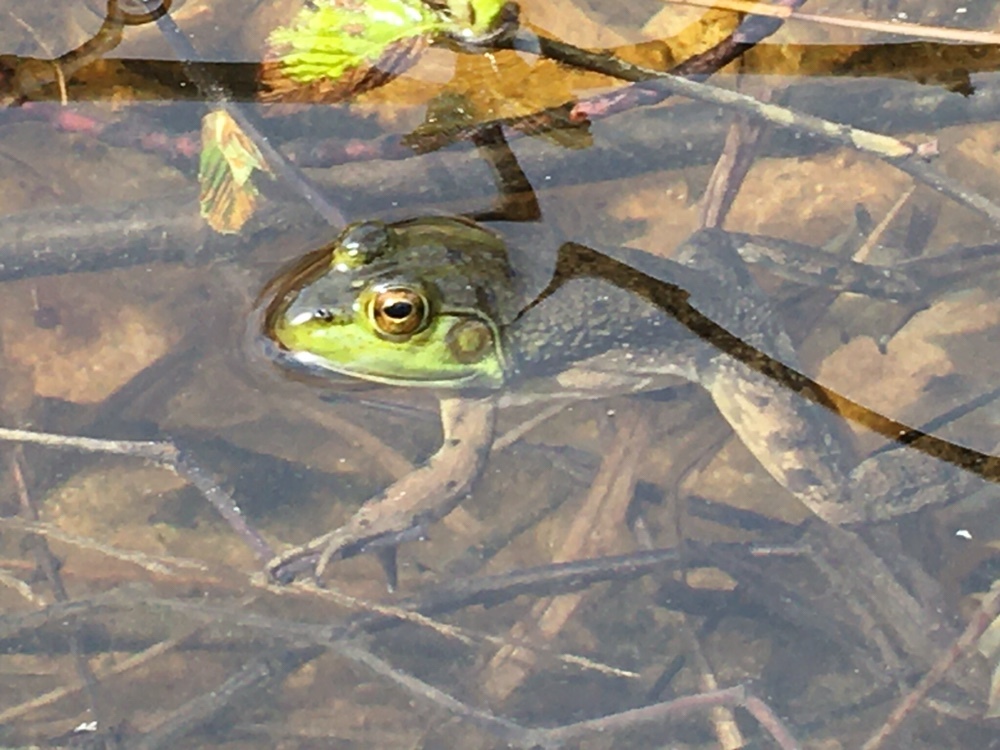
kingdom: Animalia
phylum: Chordata
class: Amphibia
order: Anura
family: Ranidae
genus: Lithobates
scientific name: Lithobates clamitans
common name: Green frog
